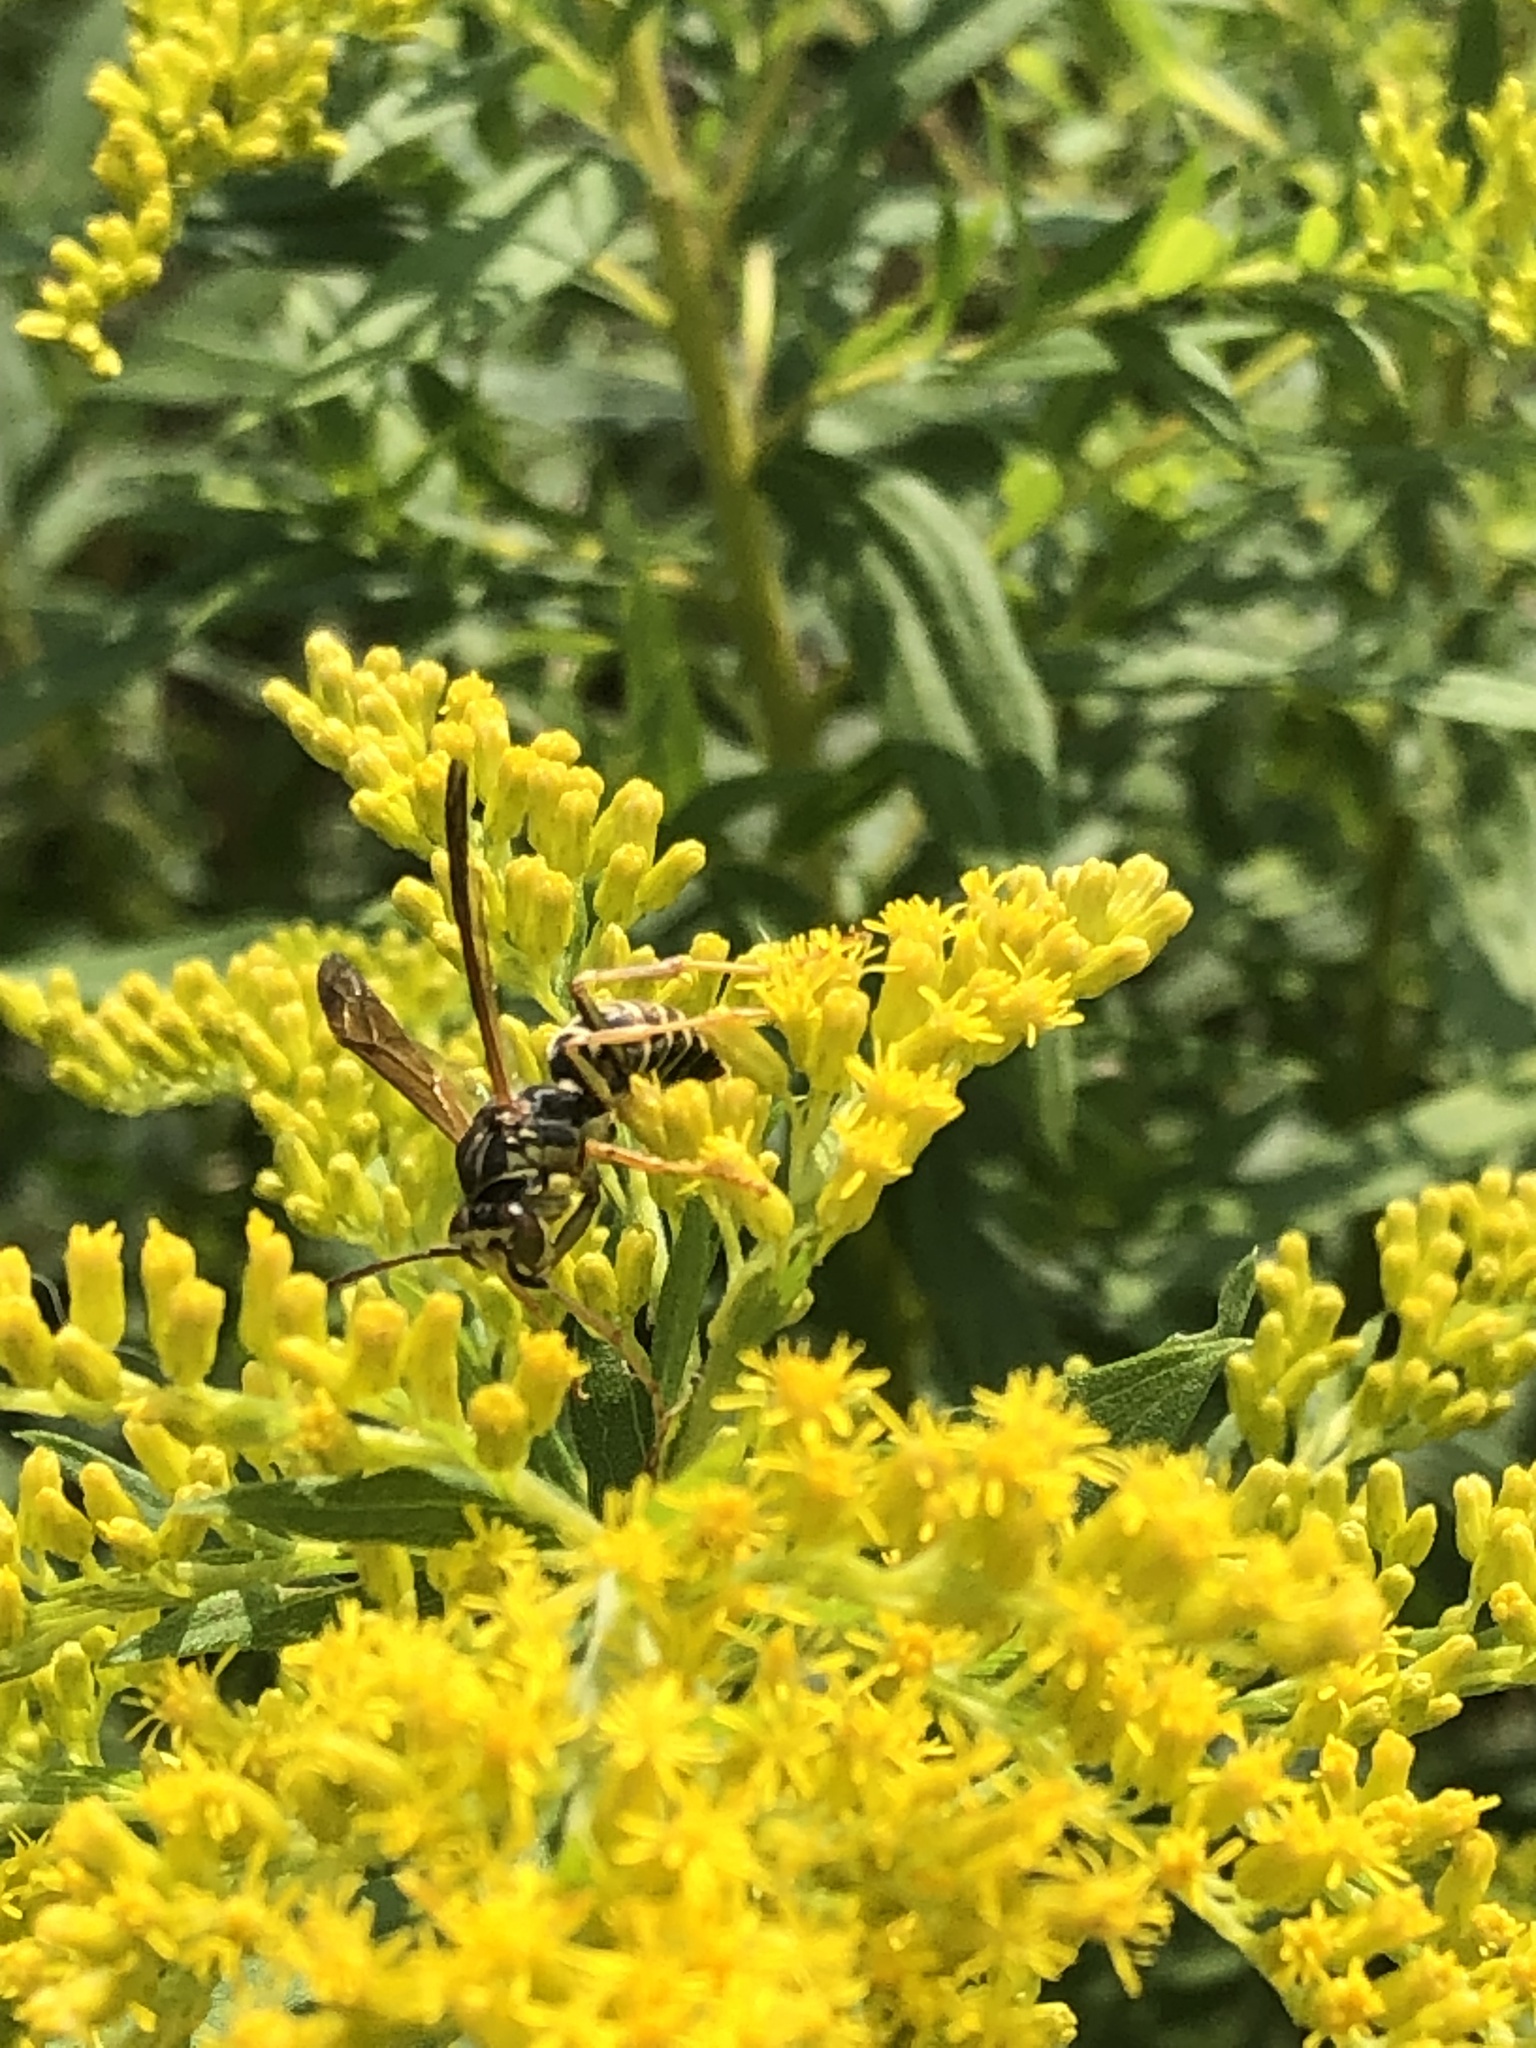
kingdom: Animalia
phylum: Arthropoda
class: Insecta
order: Hymenoptera
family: Eumenidae
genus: Polistes
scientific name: Polistes fuscatus
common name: Dark paper wasp
